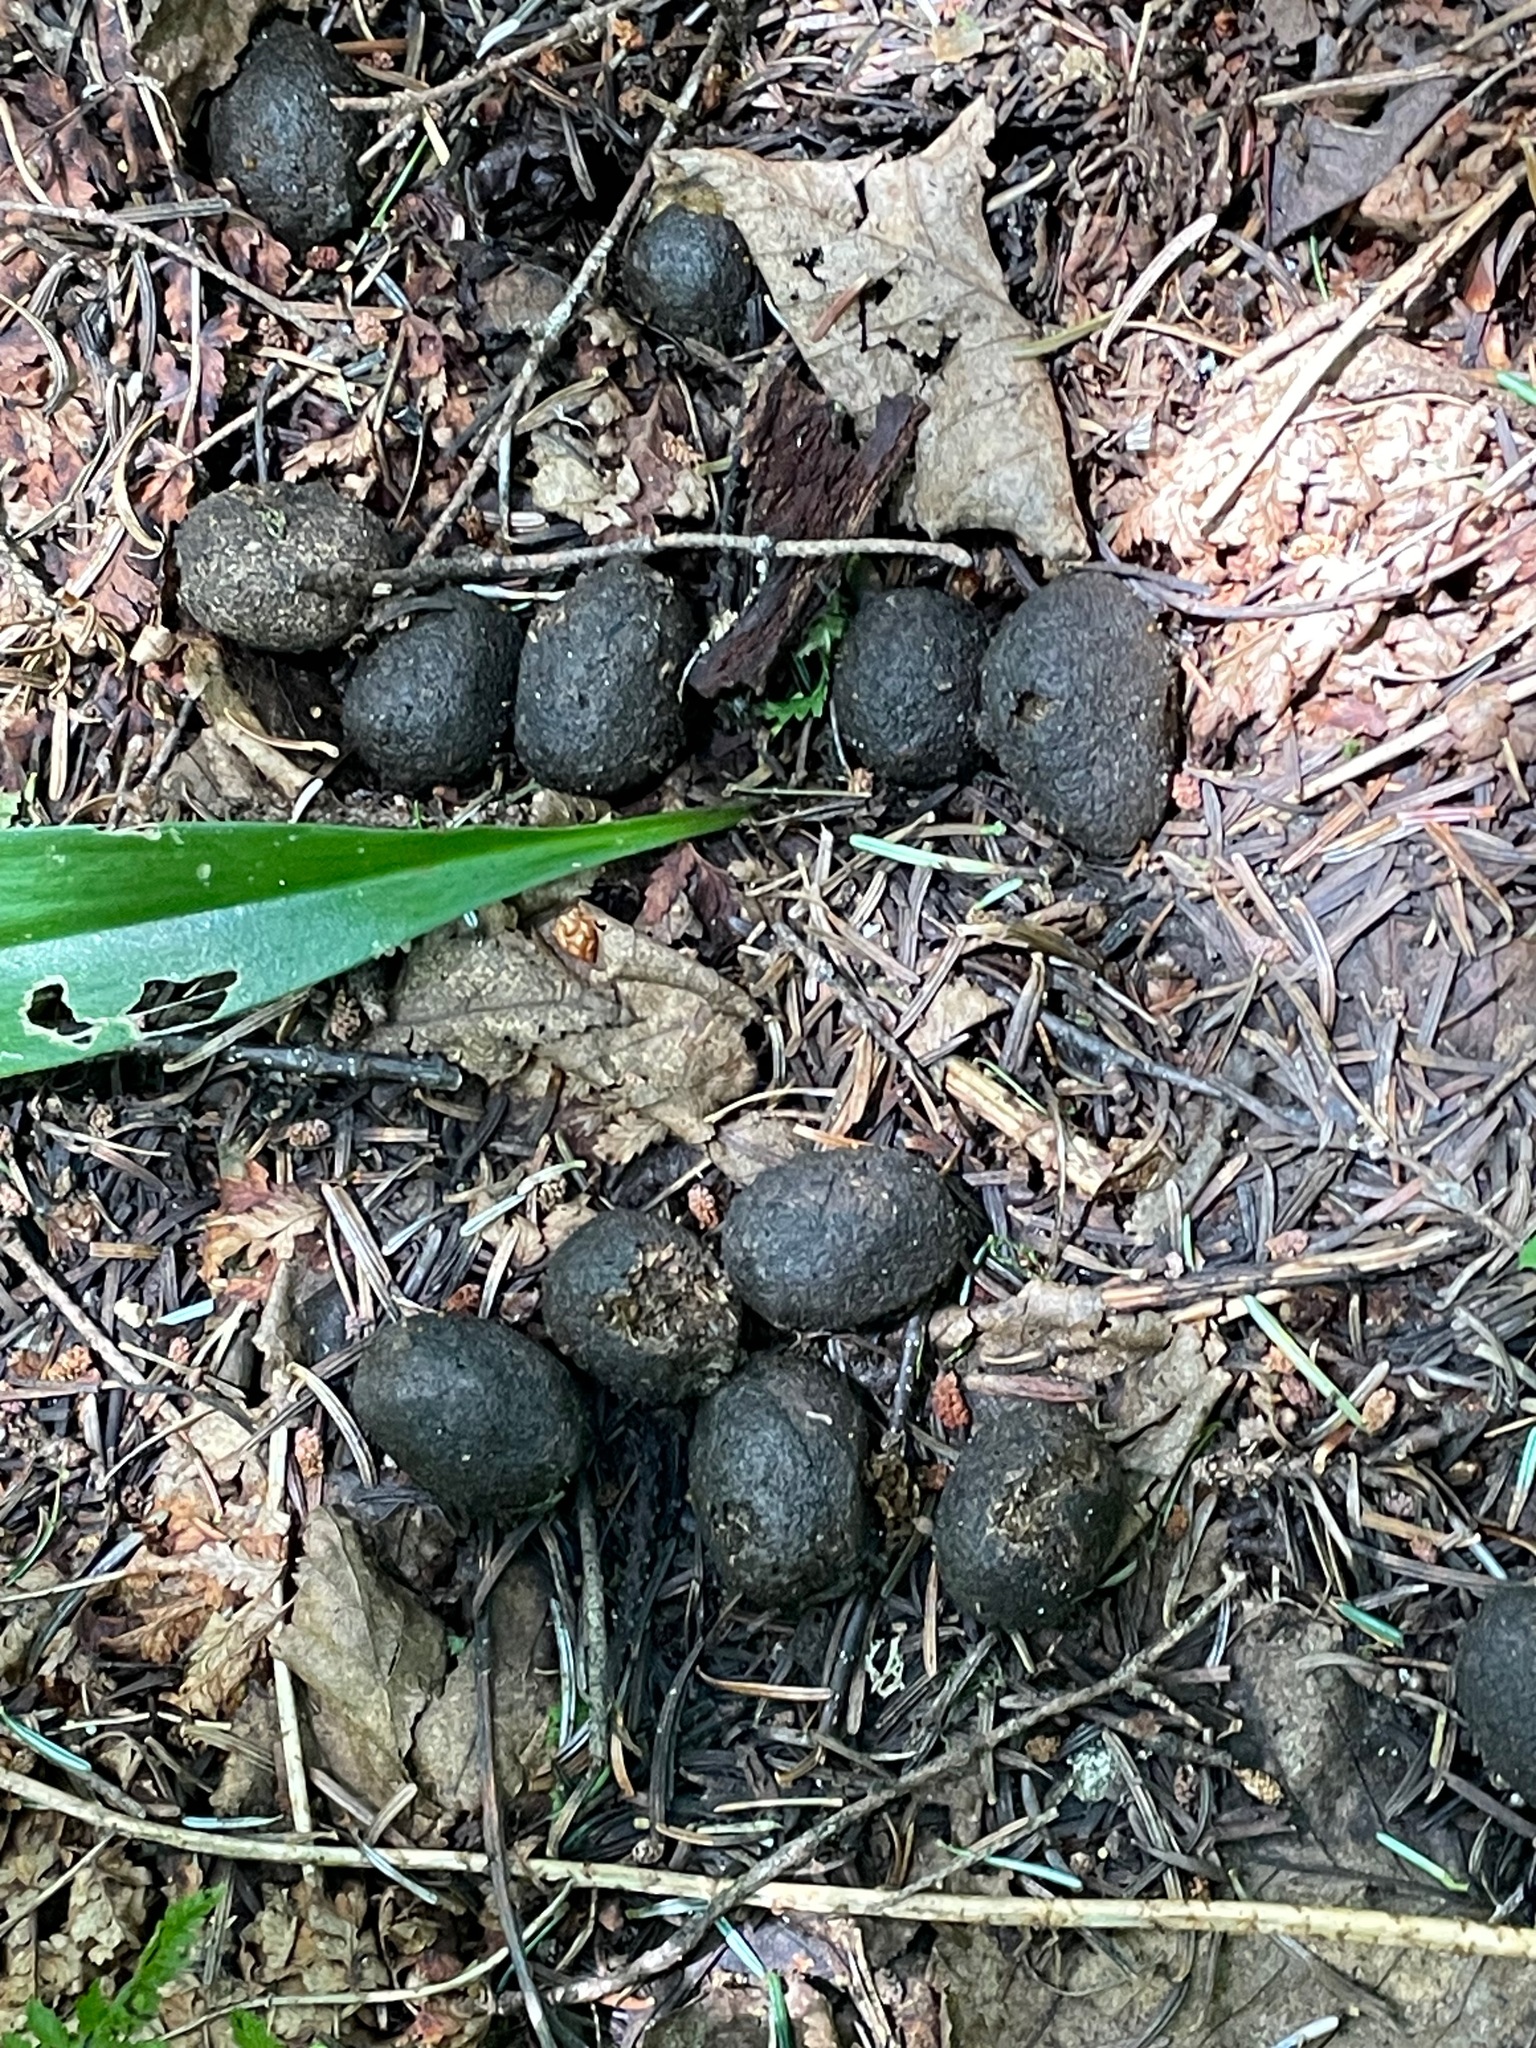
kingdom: Animalia
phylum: Chordata
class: Mammalia
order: Artiodactyla
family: Cervidae
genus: Alces
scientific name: Alces alces
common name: Moose
